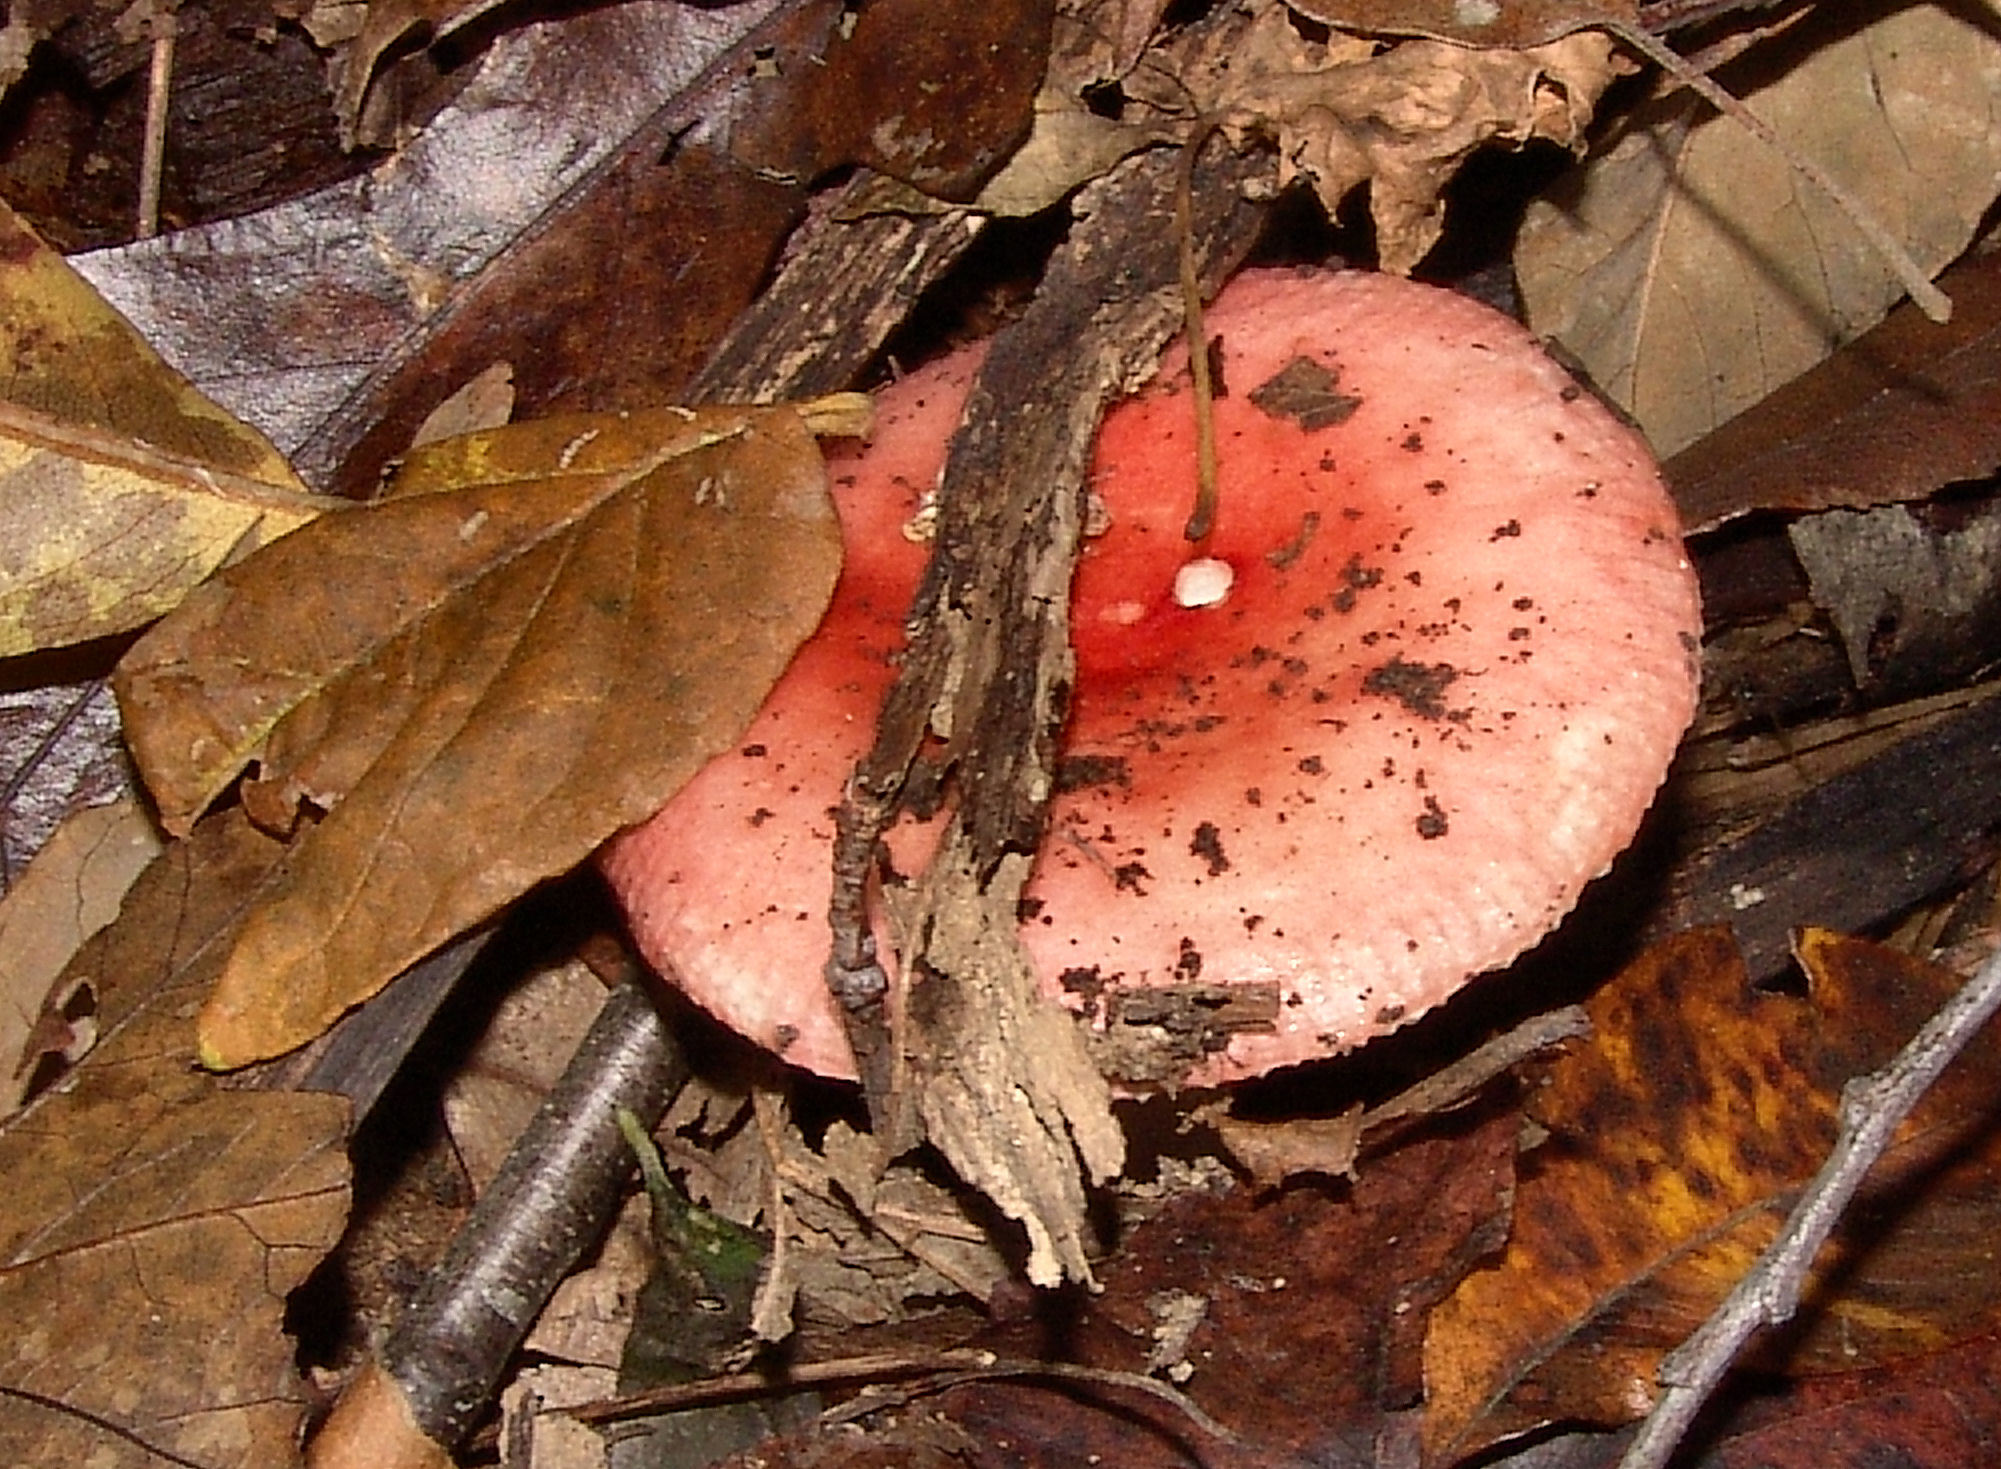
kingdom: Fungi
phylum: Basidiomycota
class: Agaricomycetes
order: Russulales
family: Russulaceae
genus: Russula
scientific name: Russula
